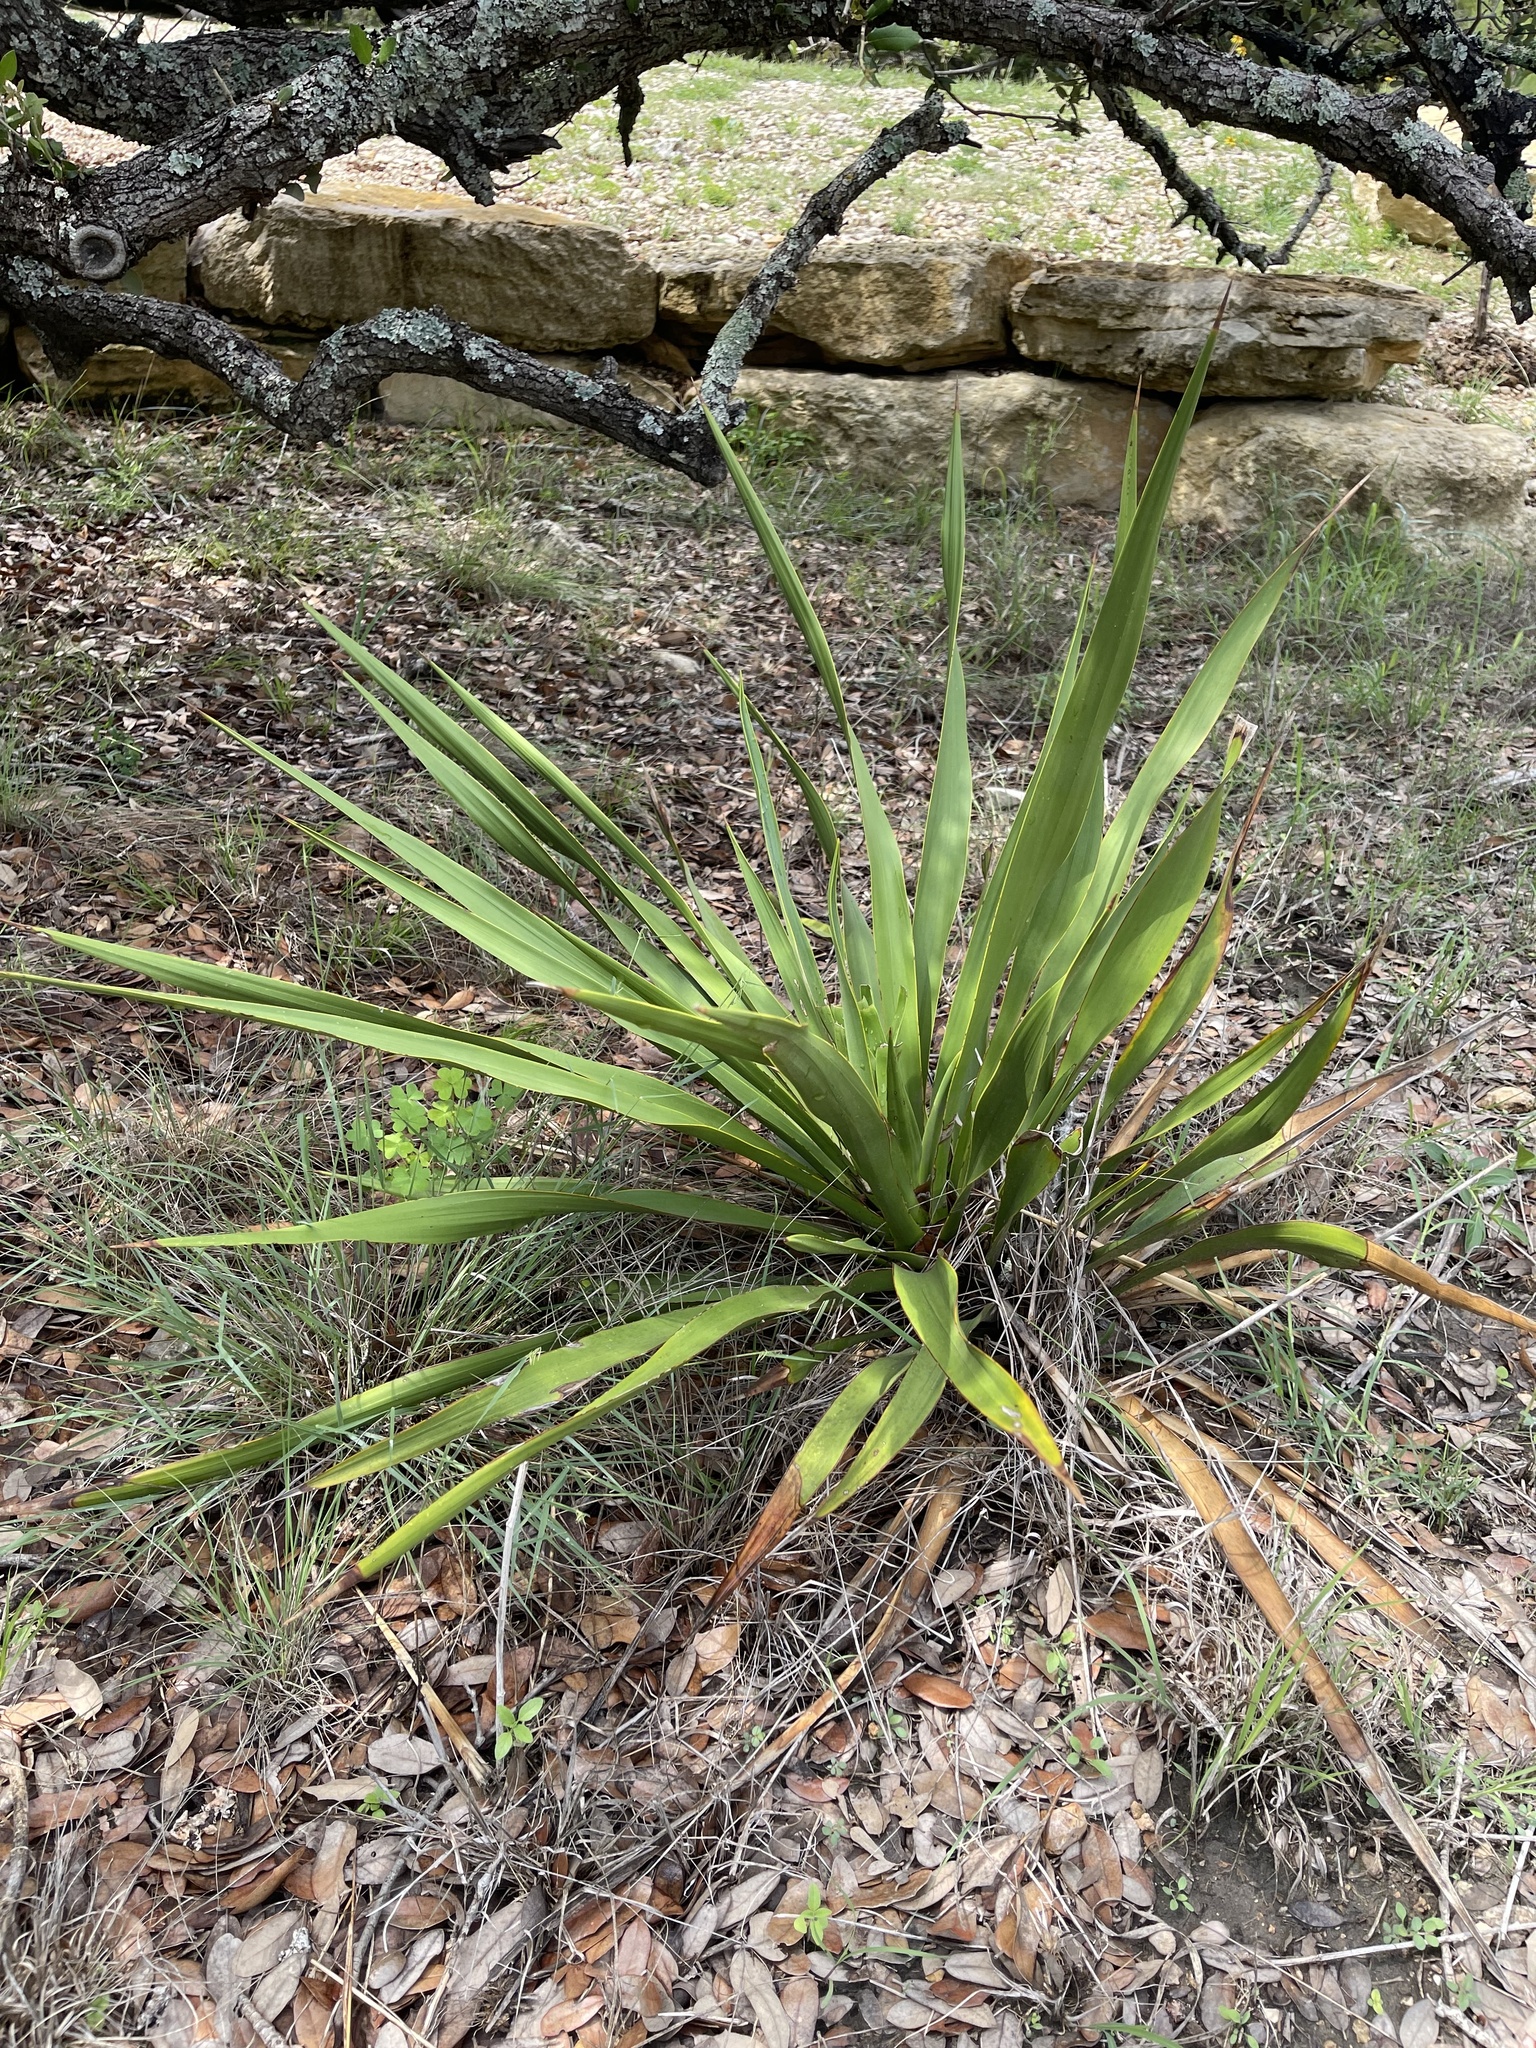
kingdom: Plantae
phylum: Tracheophyta
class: Liliopsida
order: Asparagales
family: Asparagaceae
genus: Yucca
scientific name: Yucca rupicola
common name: Twisted-leaf spanish-dagger
